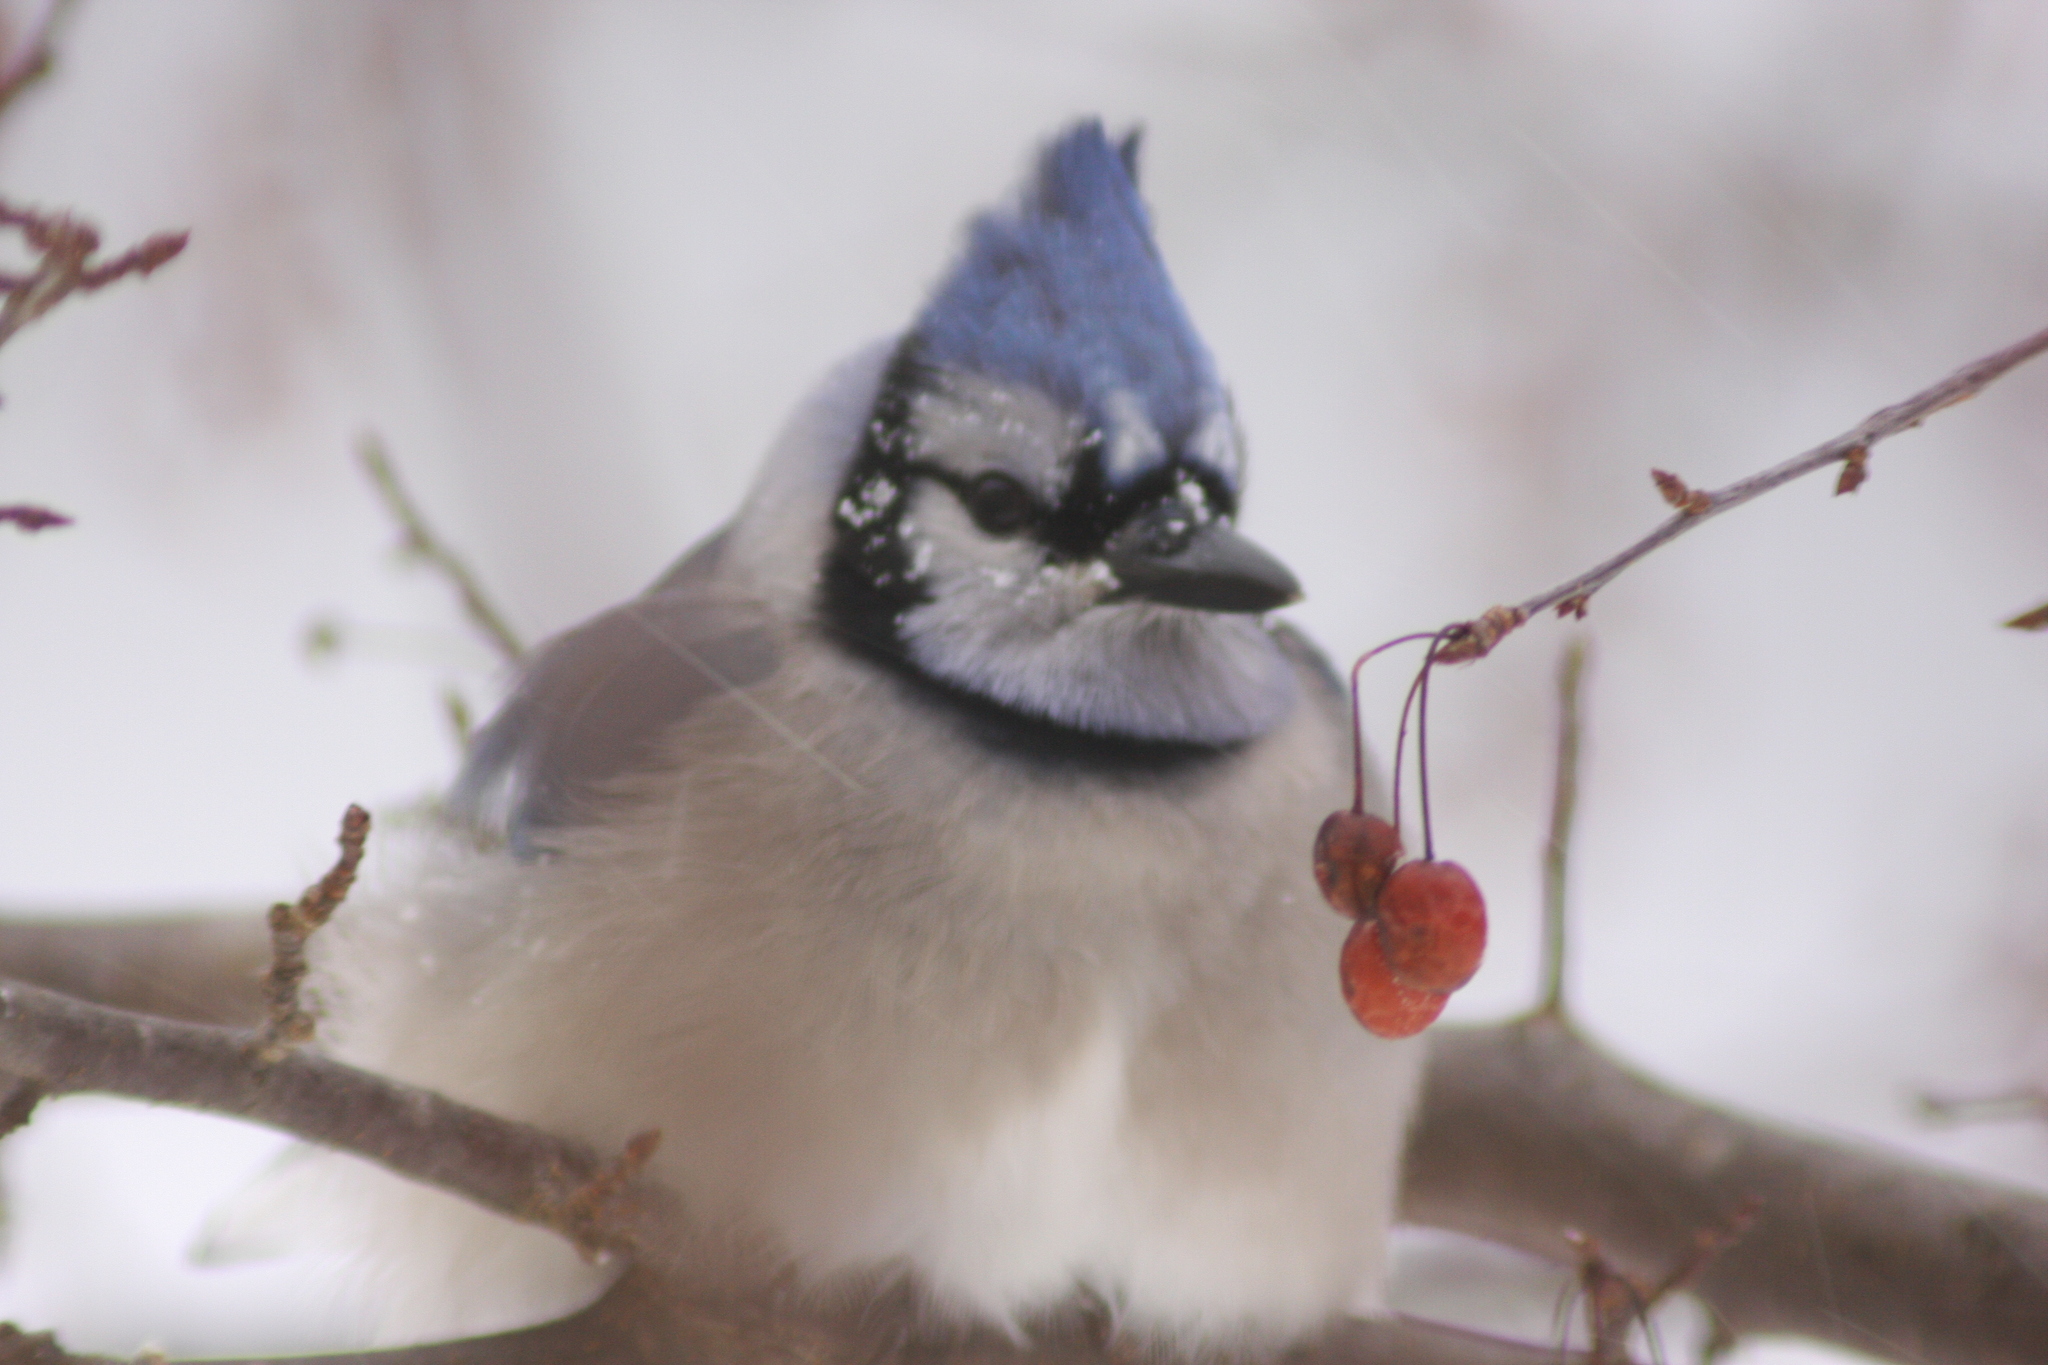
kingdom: Animalia
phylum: Chordata
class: Aves
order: Passeriformes
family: Corvidae
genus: Cyanocitta
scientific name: Cyanocitta cristata
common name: Blue jay
